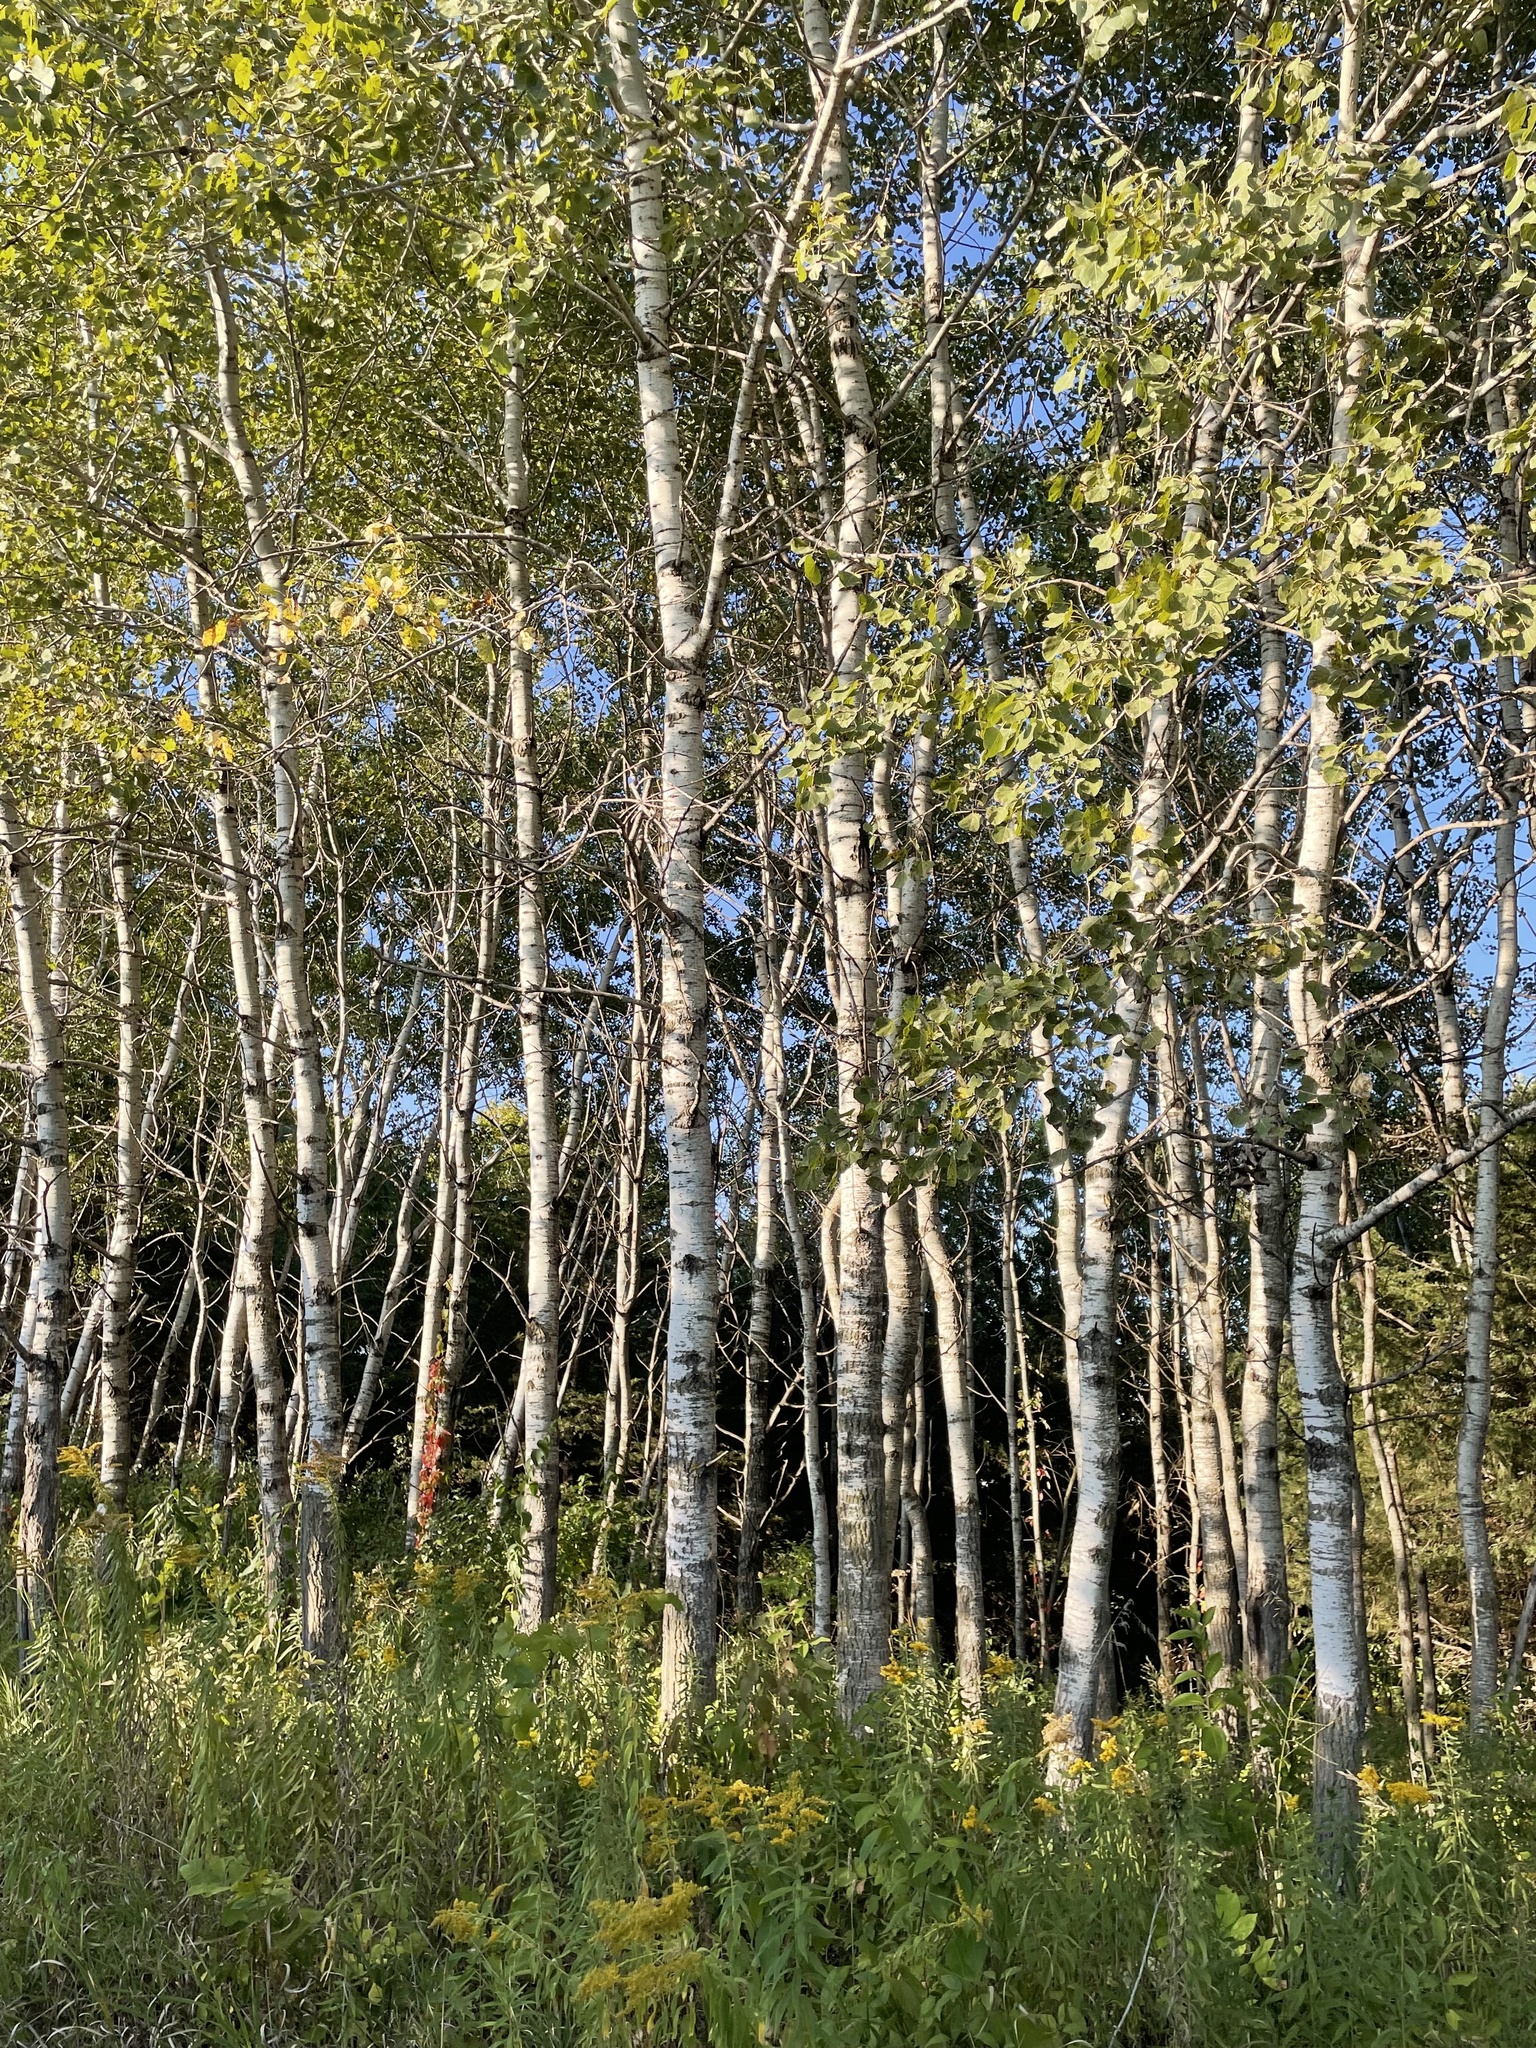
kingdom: Plantae
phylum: Tracheophyta
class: Magnoliopsida
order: Malpighiales
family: Salicaceae
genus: Populus
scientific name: Populus tremuloides
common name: Quaking aspen
